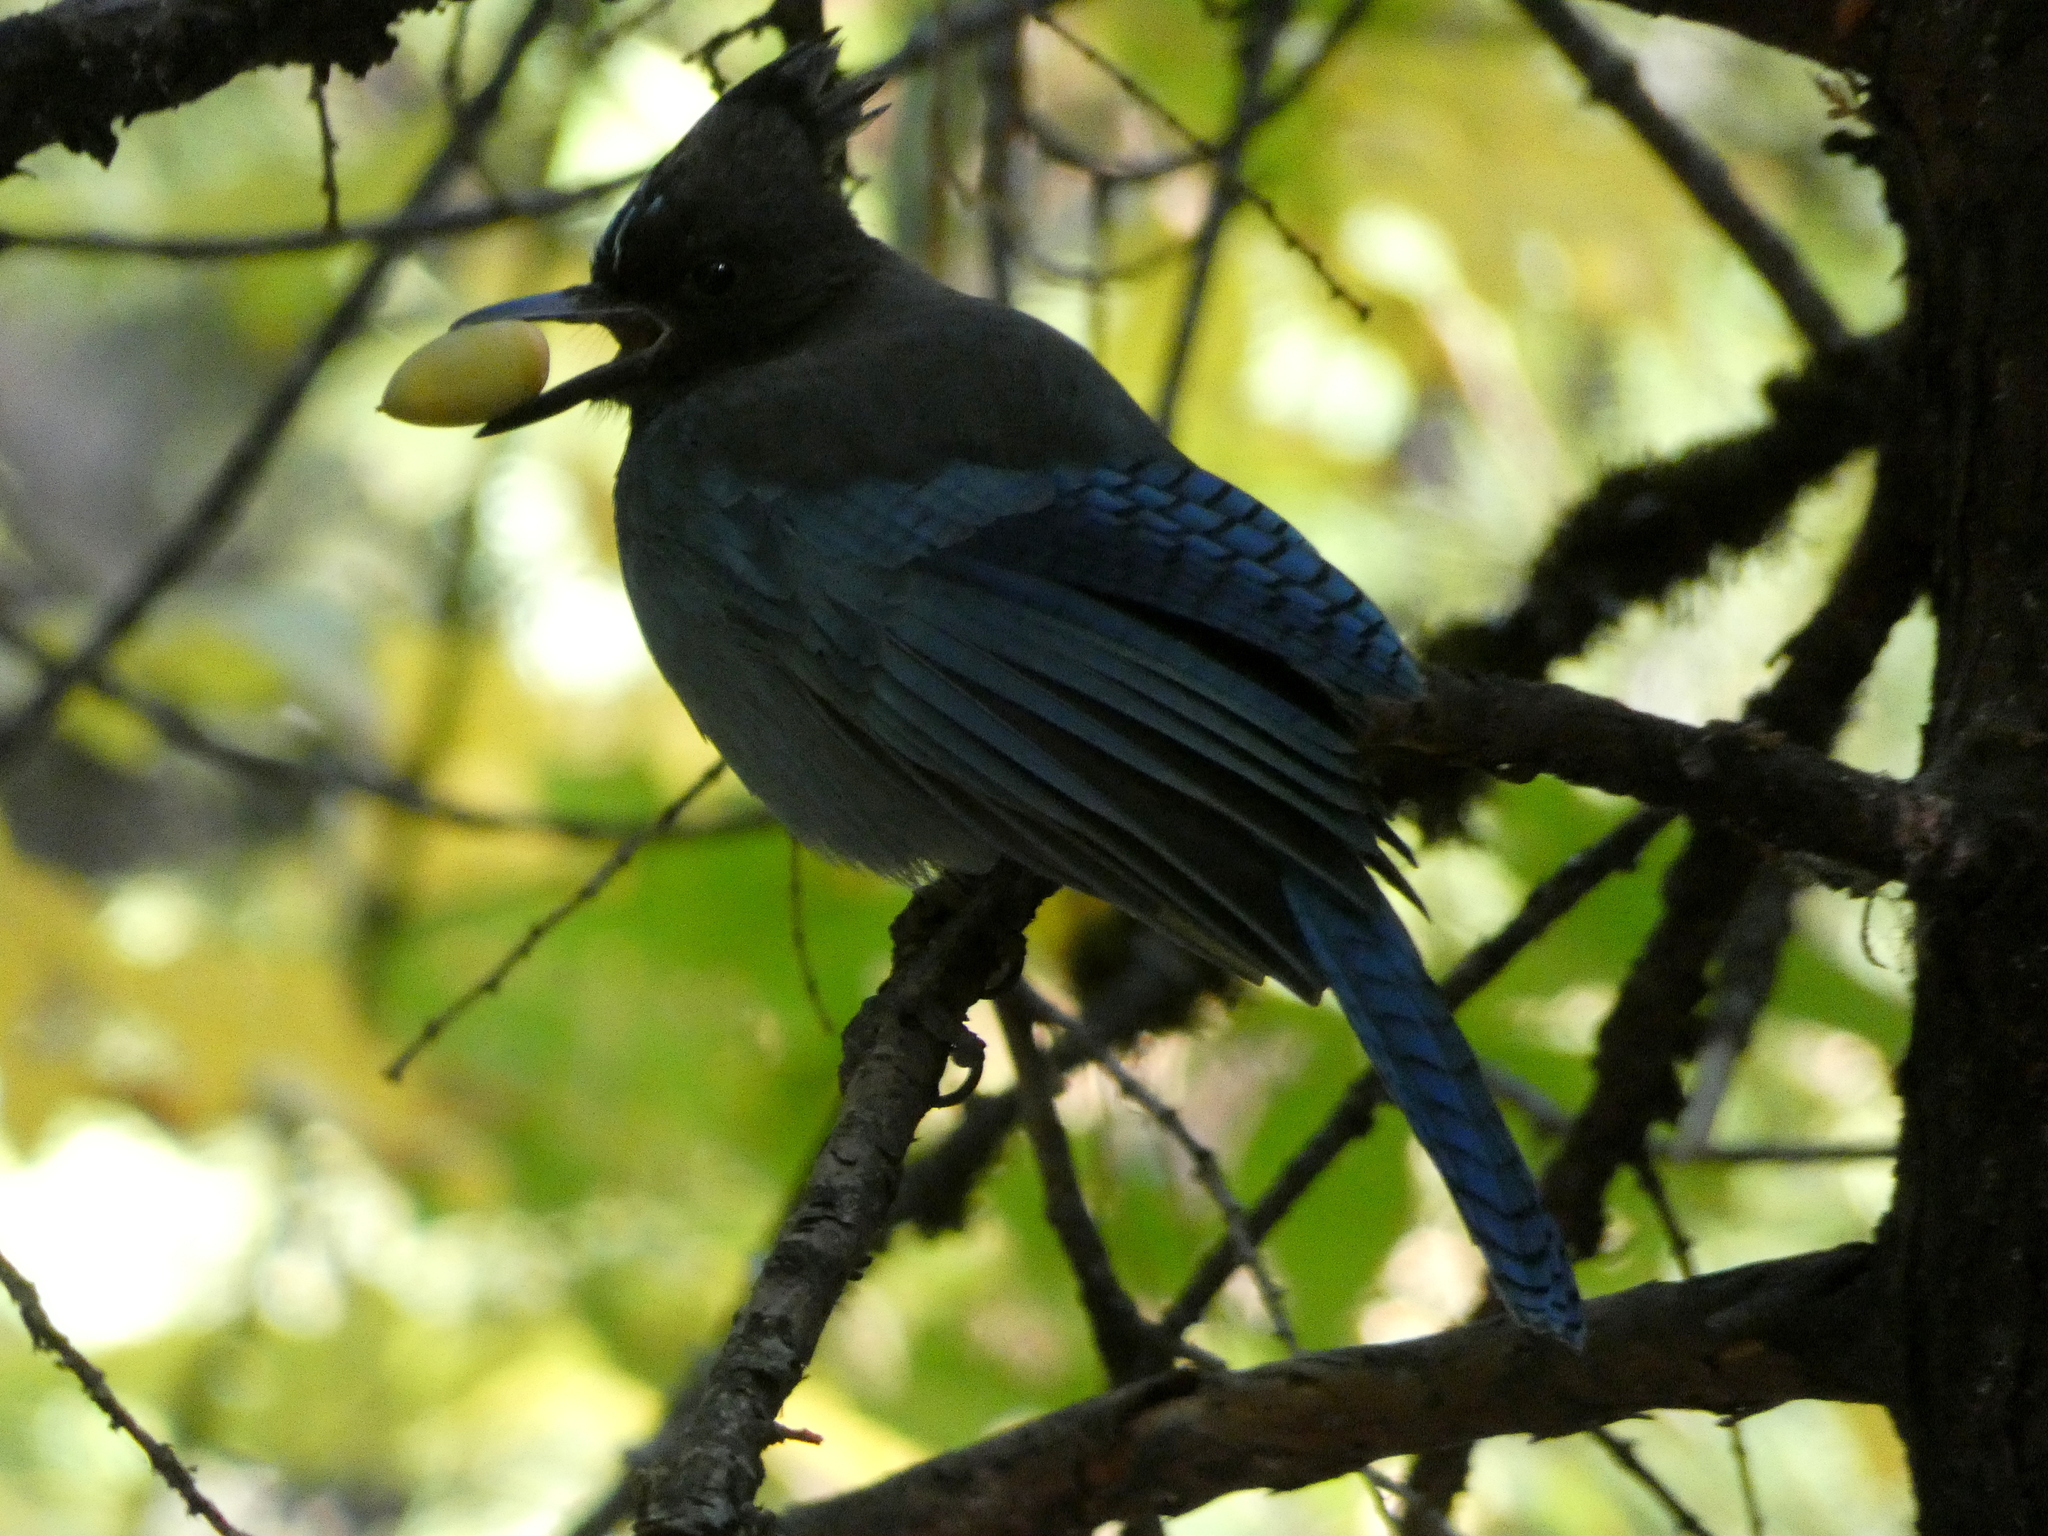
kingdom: Animalia
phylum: Chordata
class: Aves
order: Passeriformes
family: Corvidae
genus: Cyanocitta
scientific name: Cyanocitta stelleri
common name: Steller's jay
